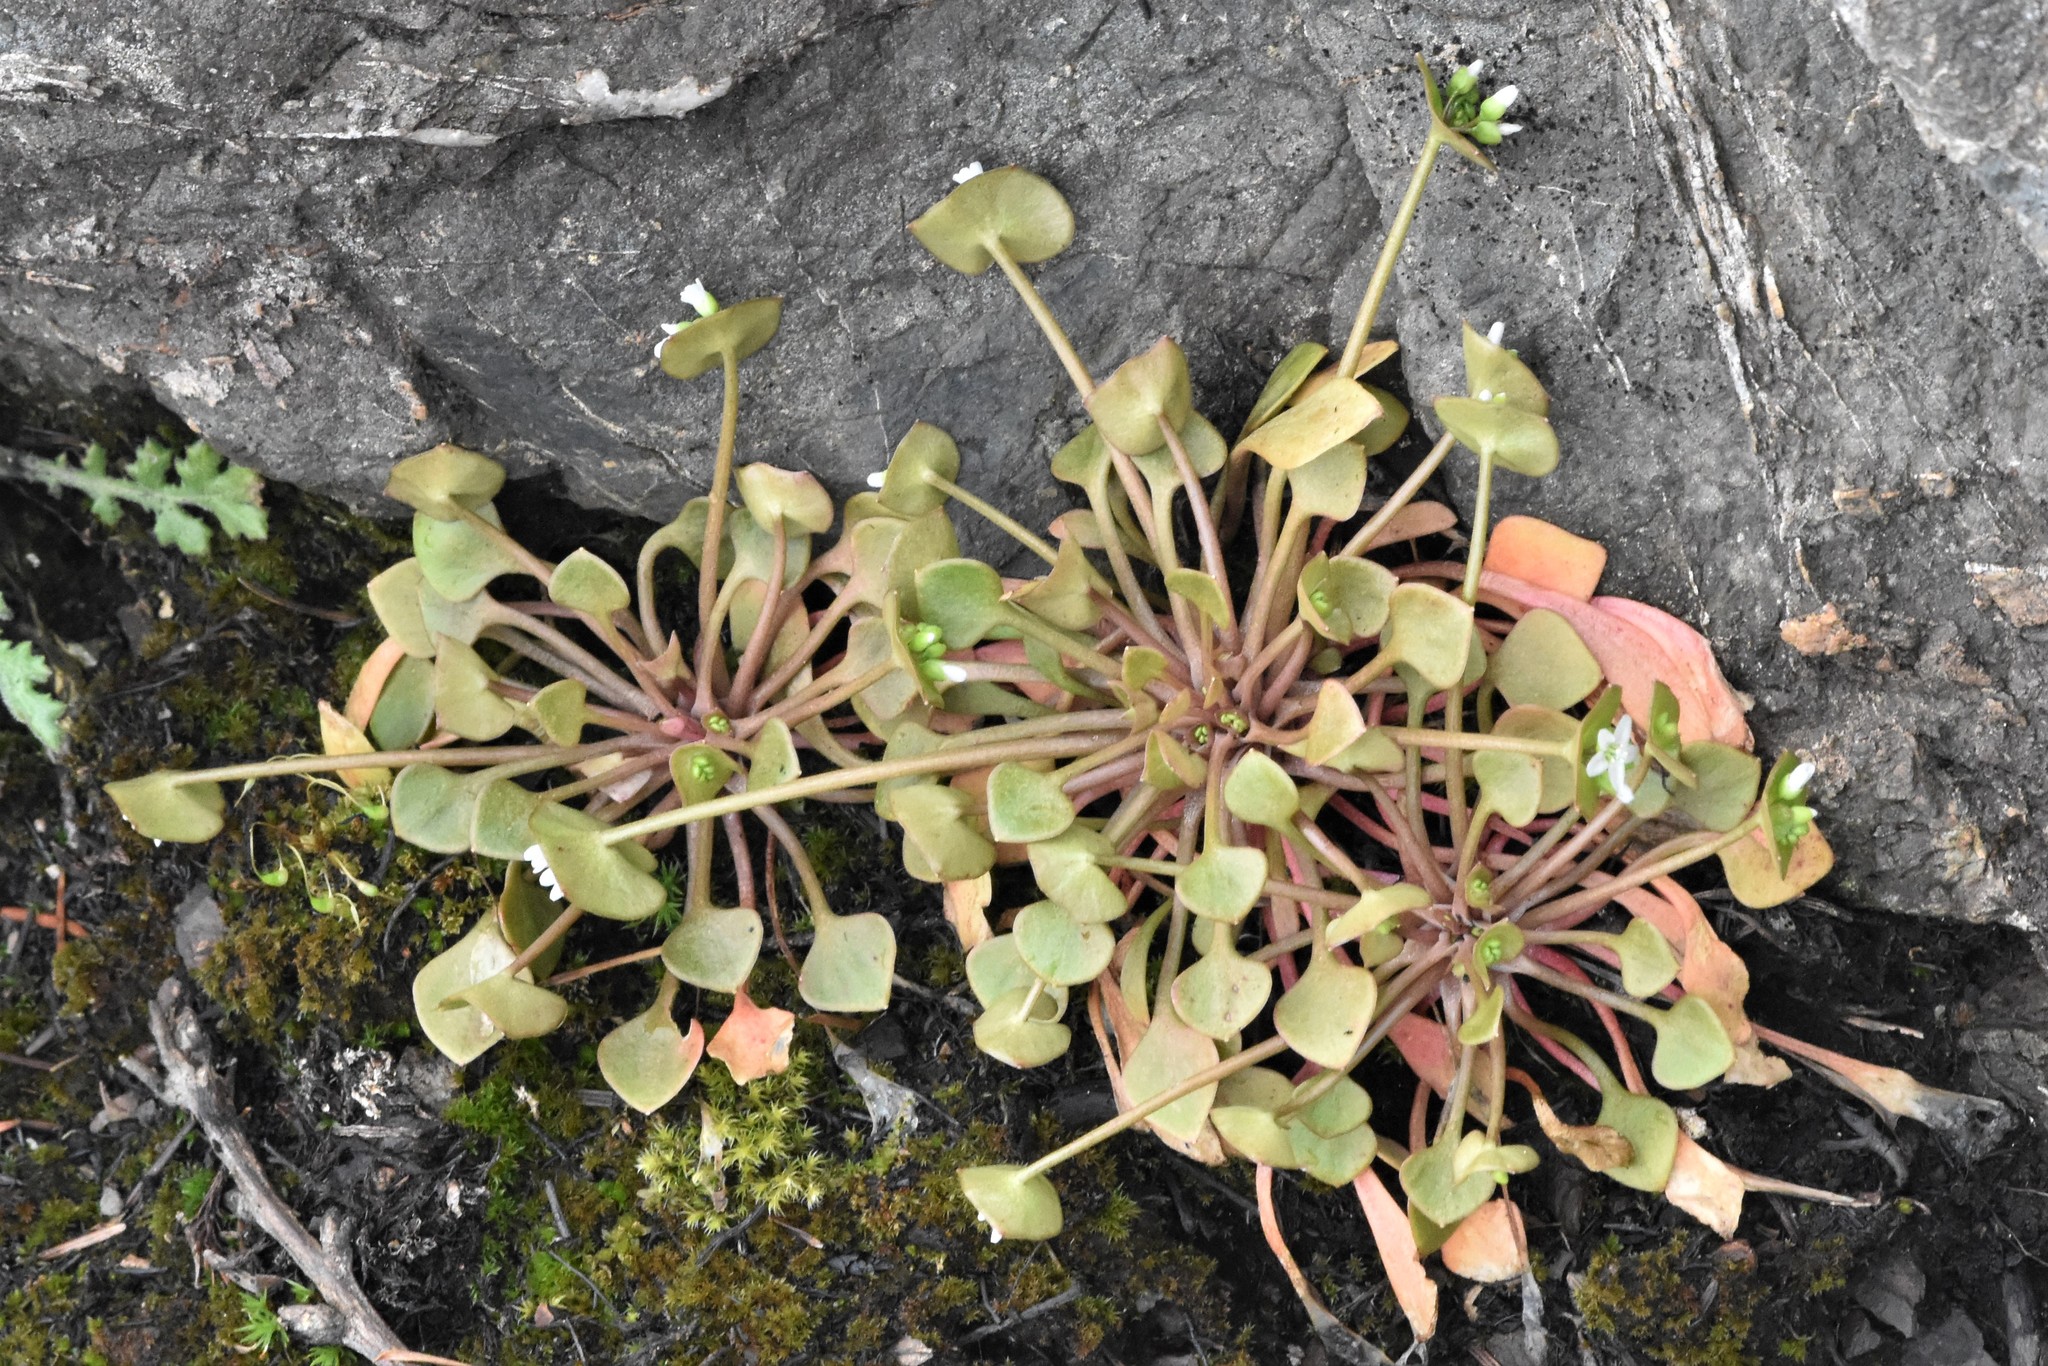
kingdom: Plantae
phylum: Tracheophyta
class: Magnoliopsida
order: Caryophyllales
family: Montiaceae
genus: Claytonia
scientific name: Claytonia rubra
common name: Erubescent miner's-lettuce
